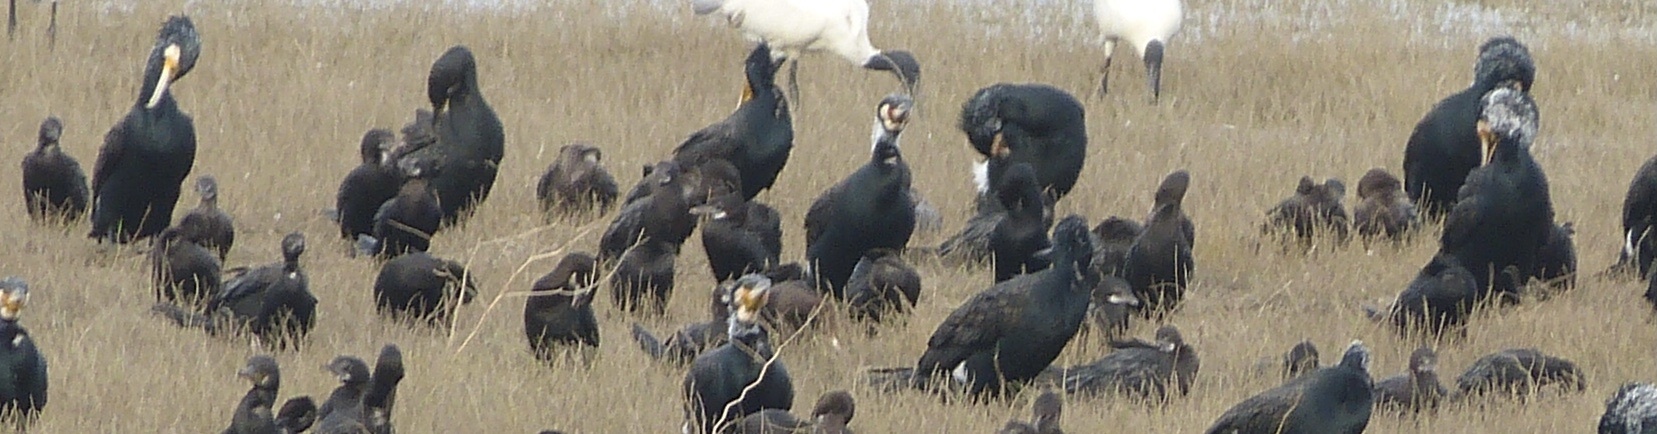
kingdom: Animalia
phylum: Chordata
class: Aves
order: Suliformes
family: Phalacrocoracidae
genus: Phalacrocorax
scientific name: Phalacrocorax carbo
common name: Great cormorant
